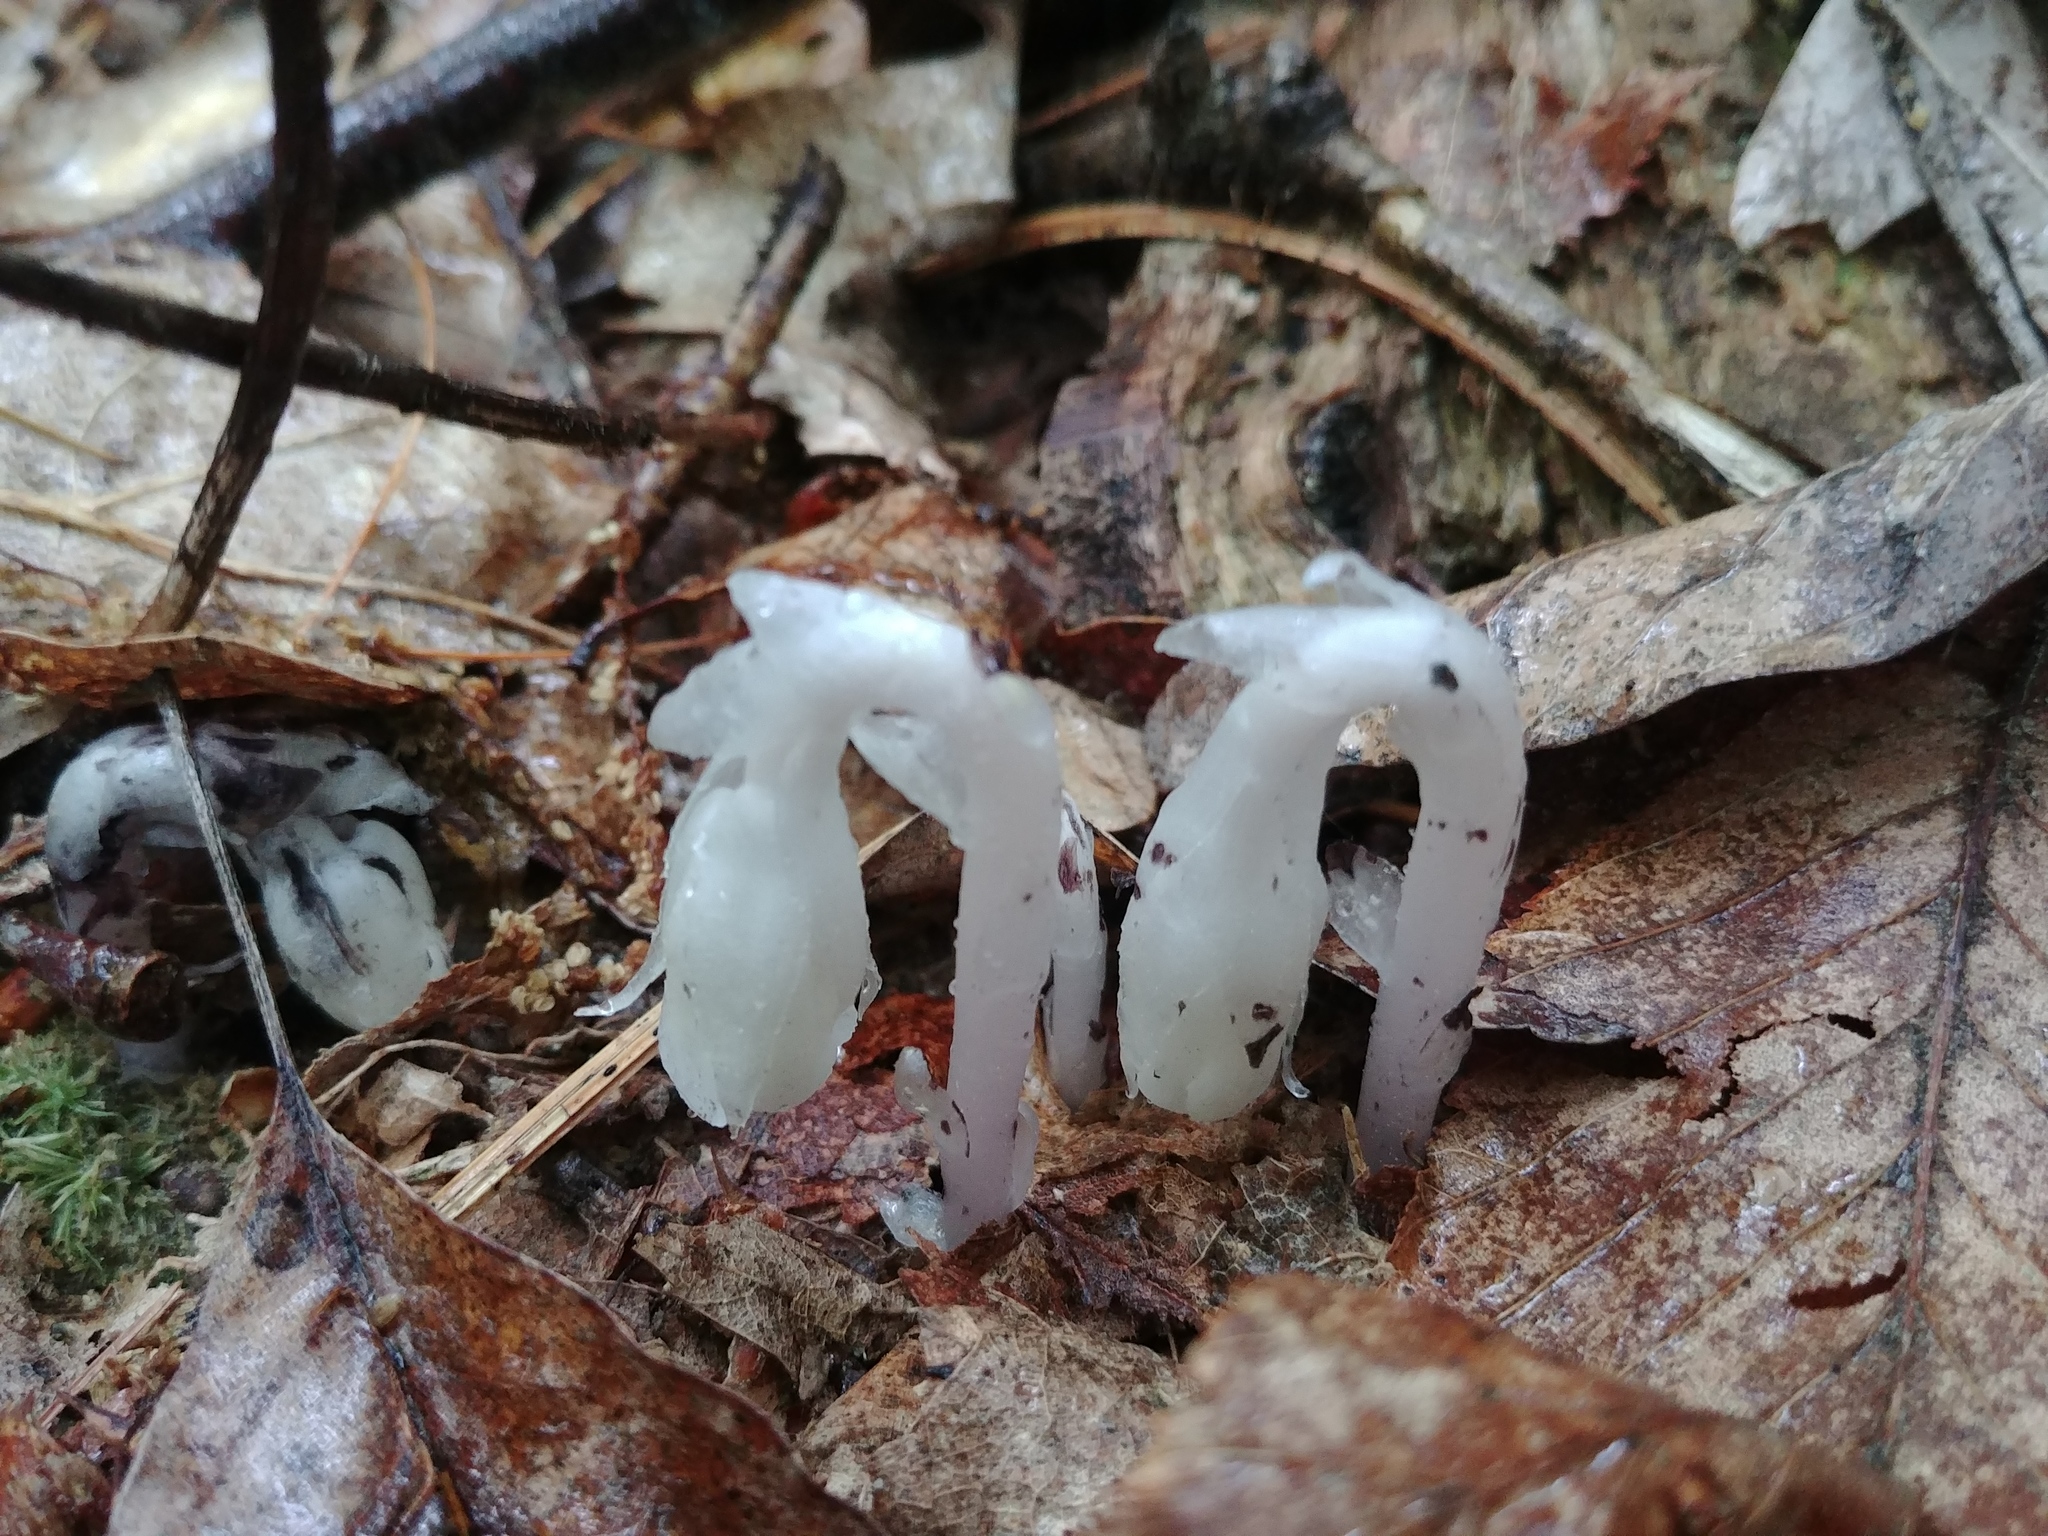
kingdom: Plantae
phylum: Tracheophyta
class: Magnoliopsida
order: Ericales
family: Ericaceae
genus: Monotropa
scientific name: Monotropa uniflora
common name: Convulsion root
